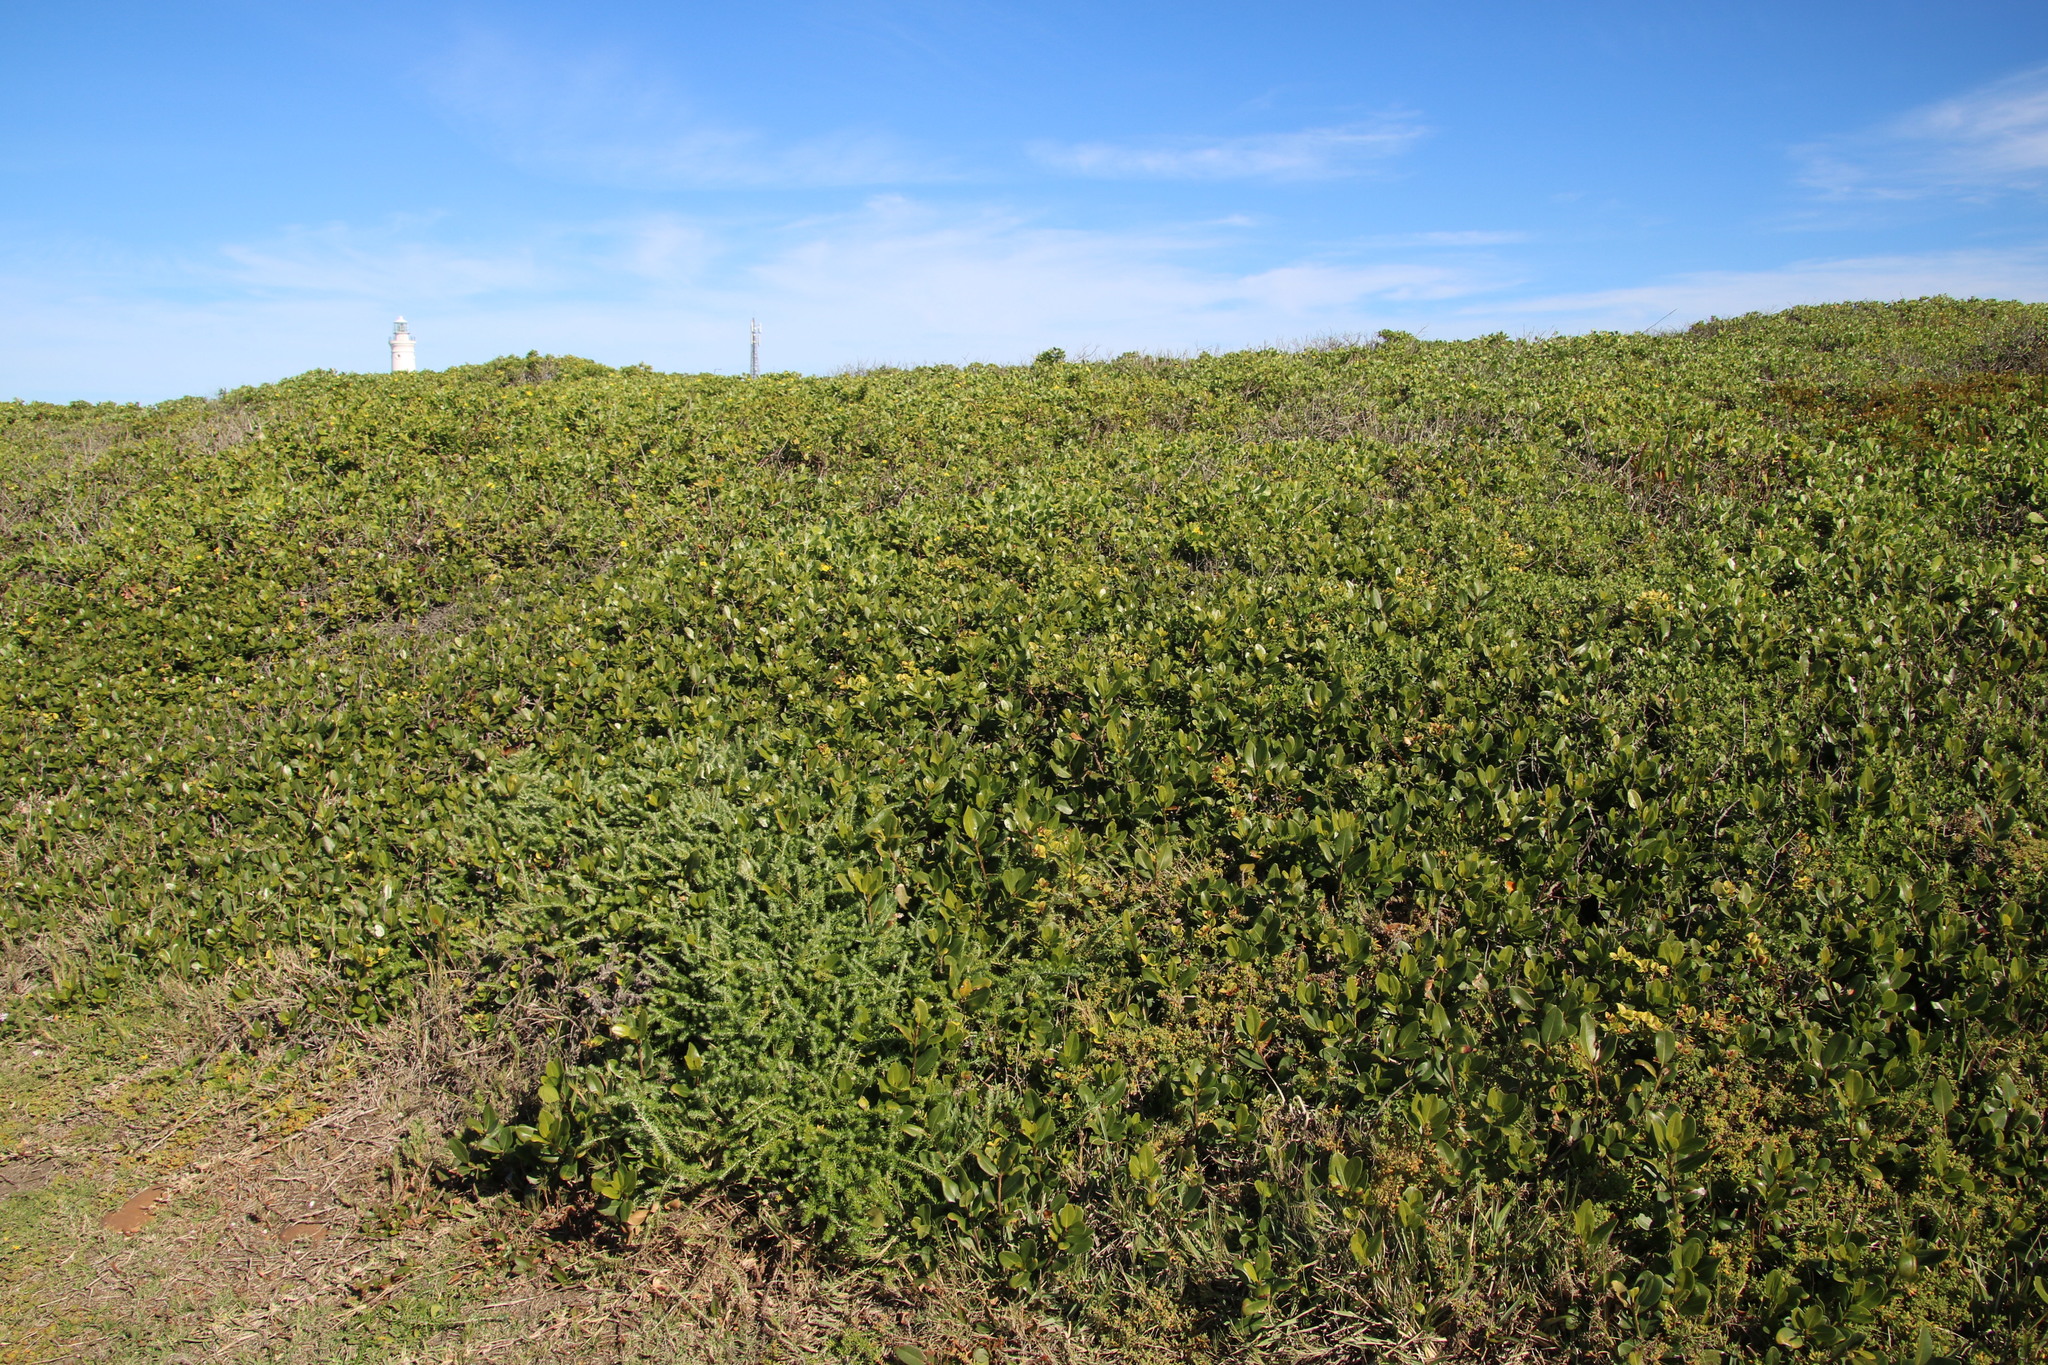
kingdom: Plantae
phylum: Tracheophyta
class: Magnoliopsida
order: Ericales
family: Sapotaceae
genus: Sideroxylon
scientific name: Sideroxylon inerme
